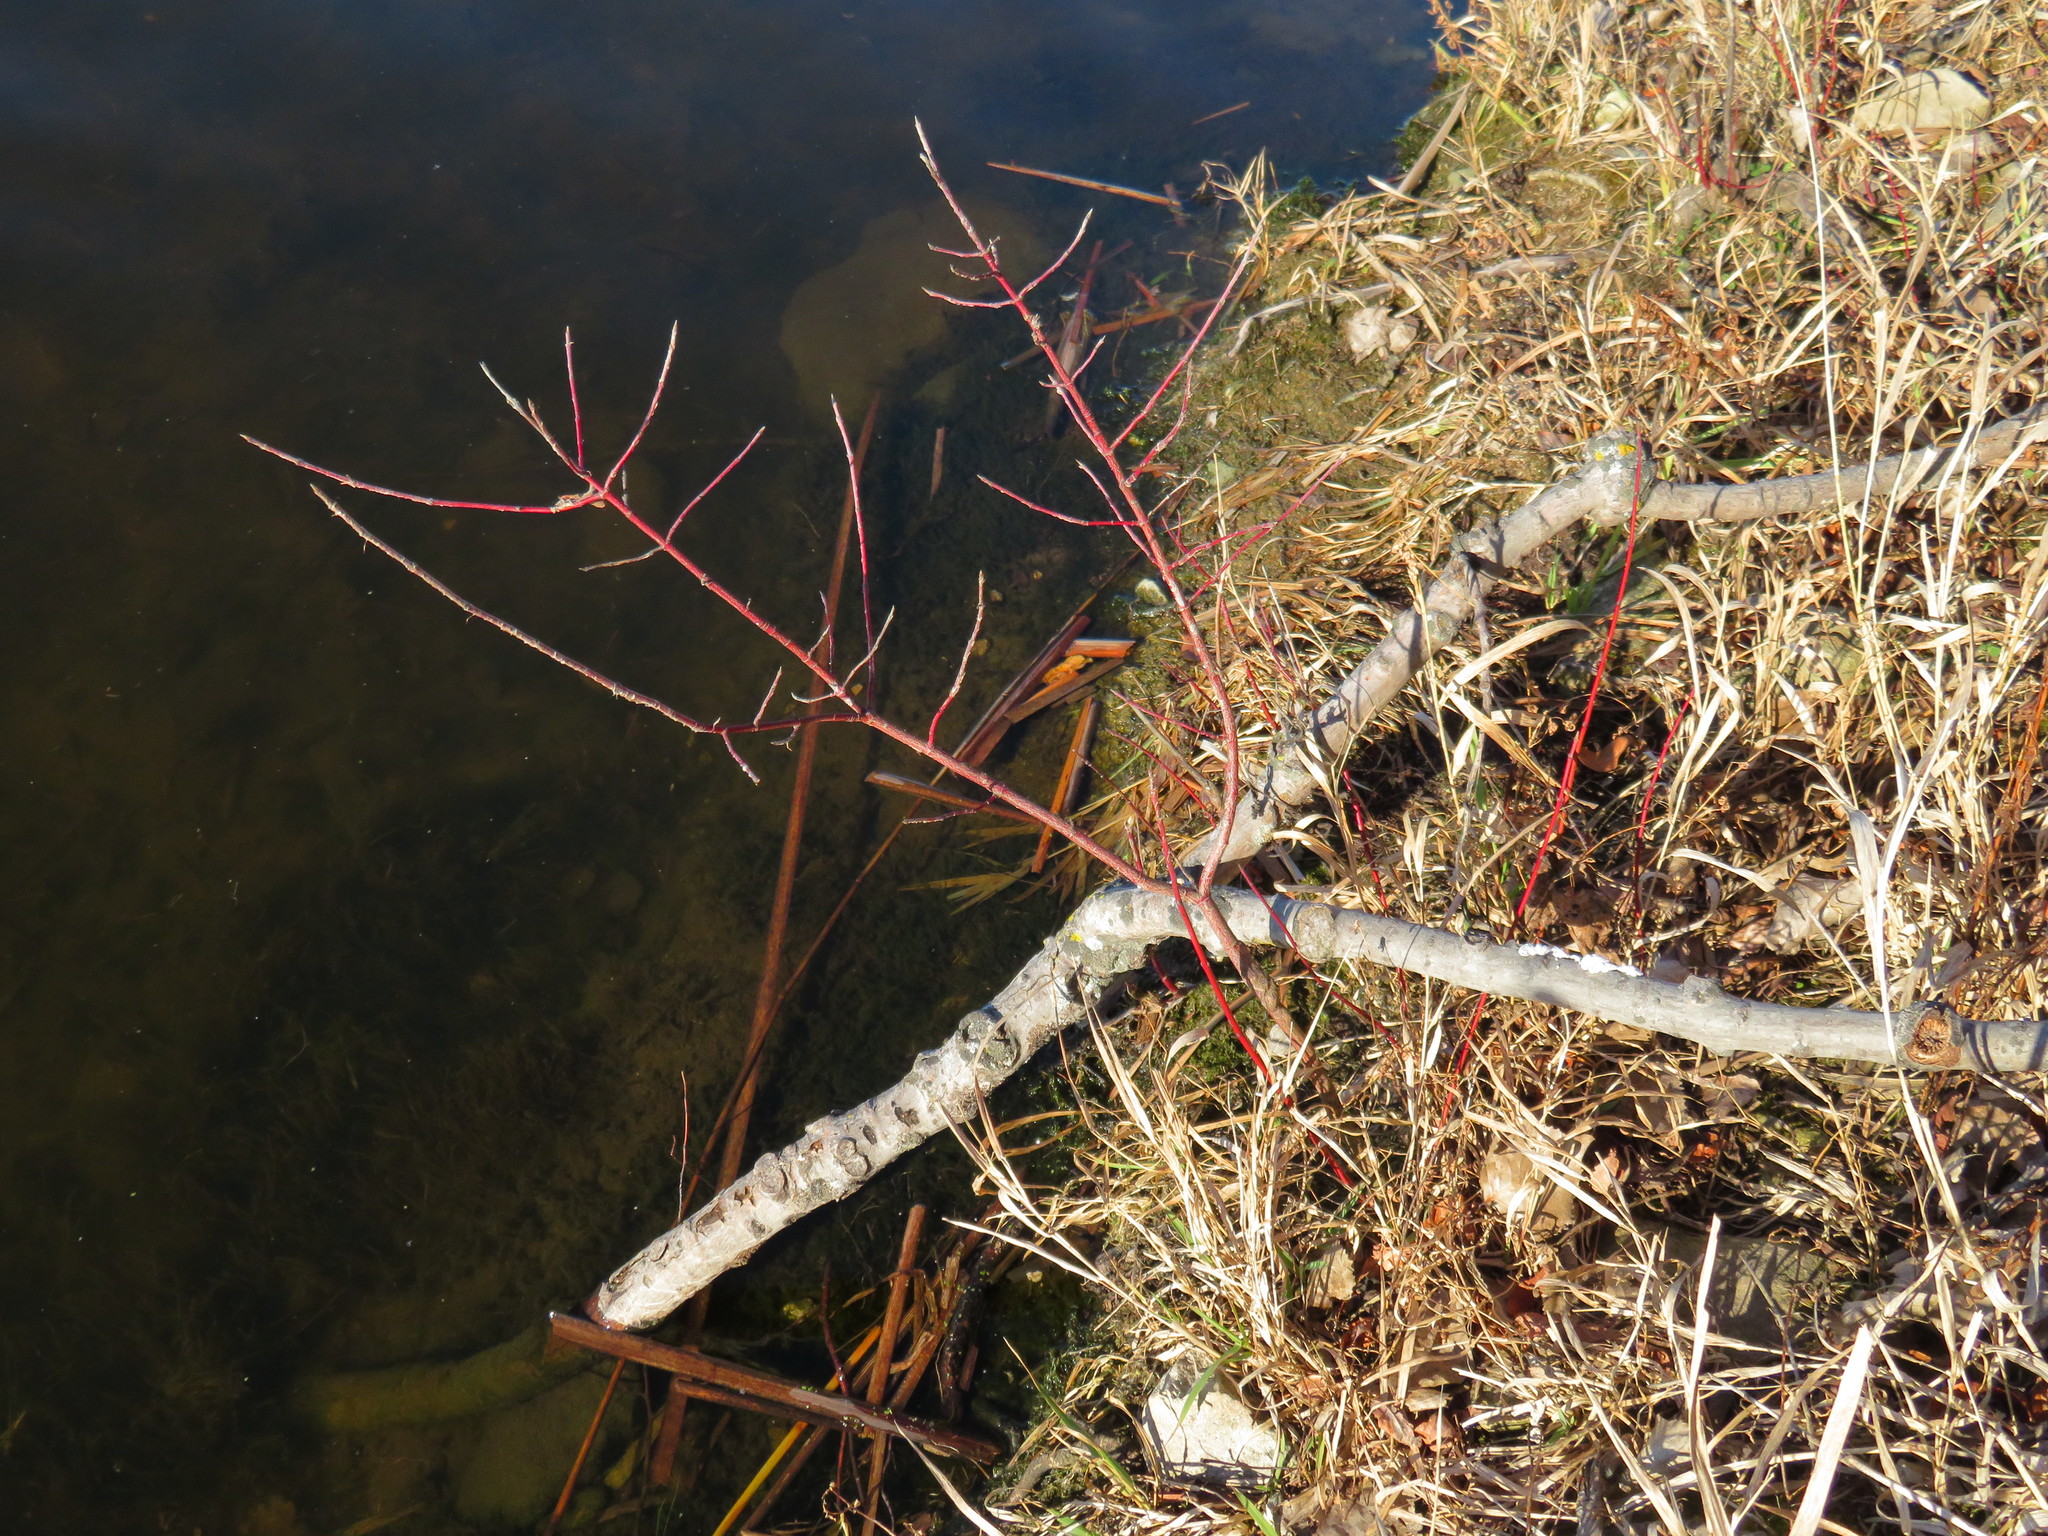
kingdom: Plantae
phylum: Tracheophyta
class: Magnoliopsida
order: Cornales
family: Cornaceae
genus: Cornus
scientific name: Cornus sericea
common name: Red-osier dogwood
